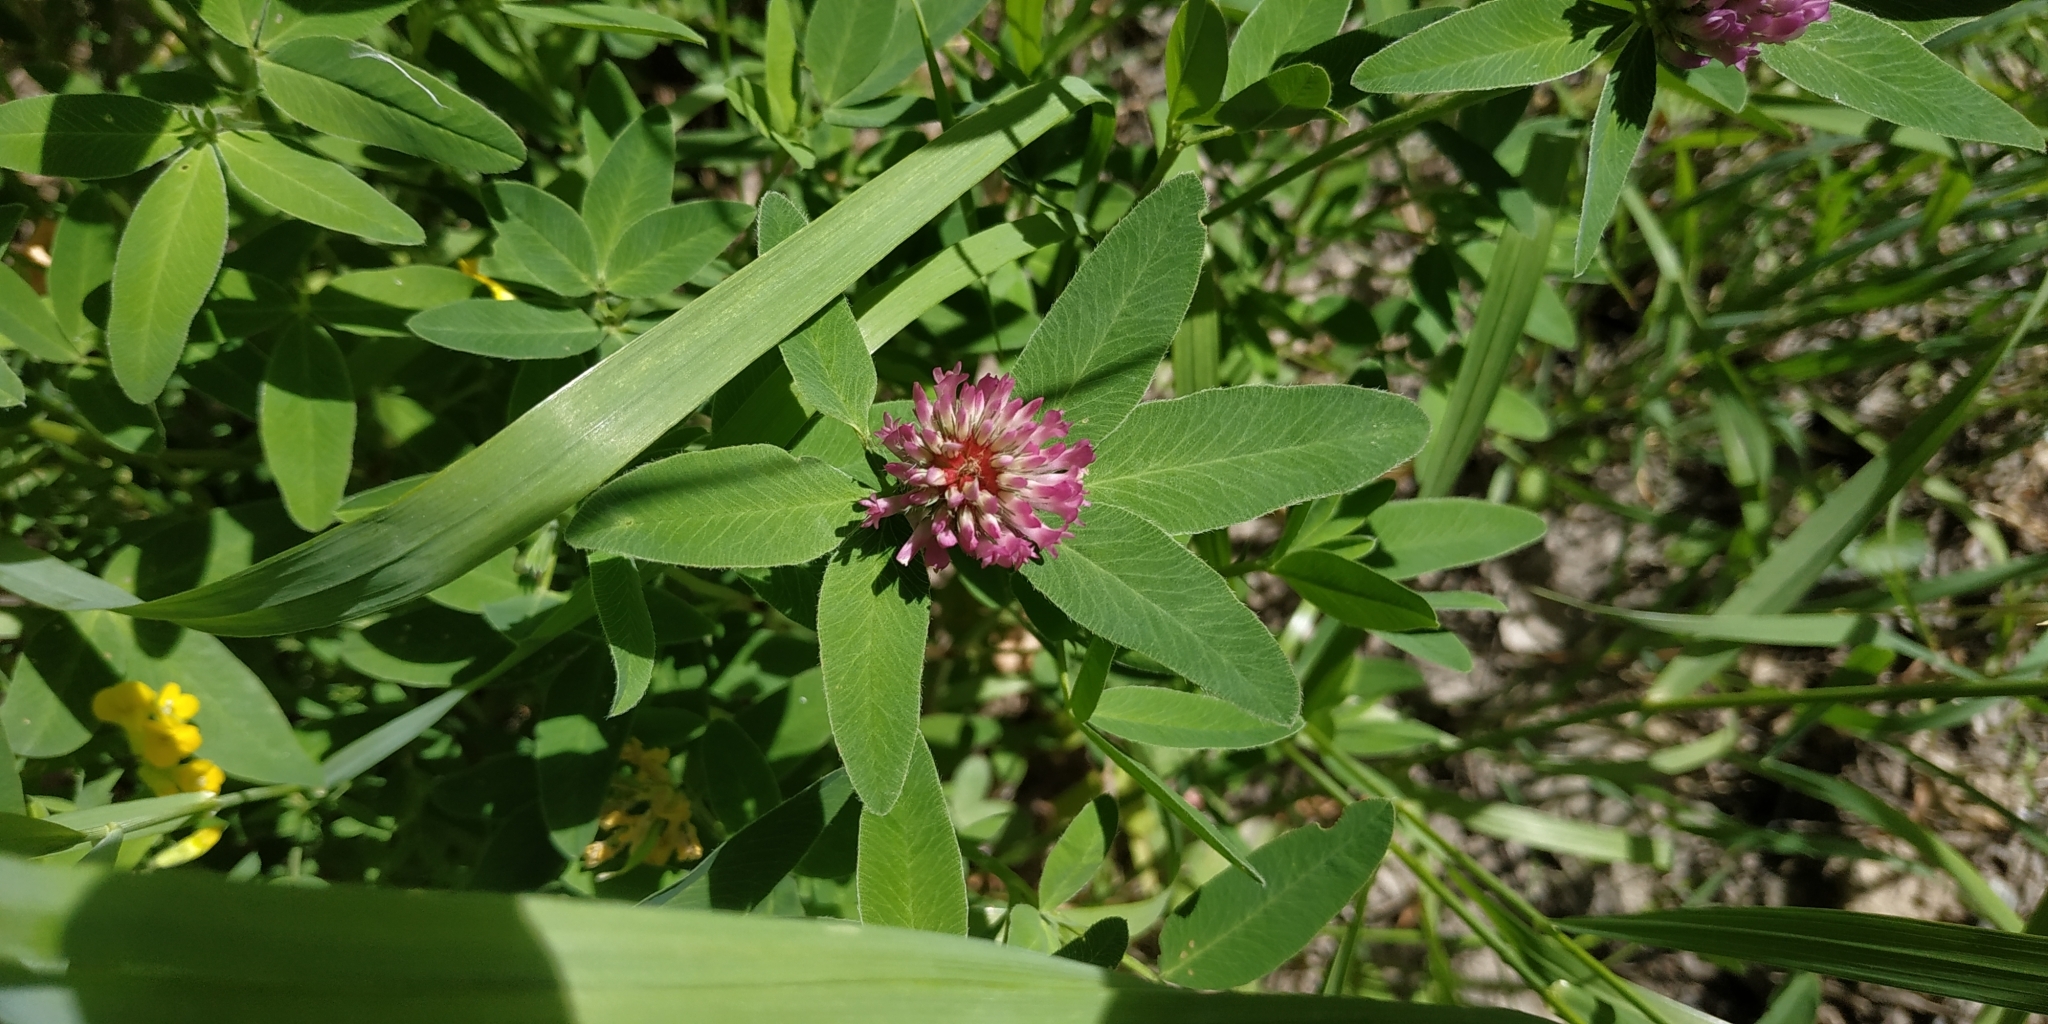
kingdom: Plantae
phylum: Tracheophyta
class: Magnoliopsida
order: Fabales
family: Fabaceae
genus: Trifolium
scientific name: Trifolium medium
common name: Zigzag clover
